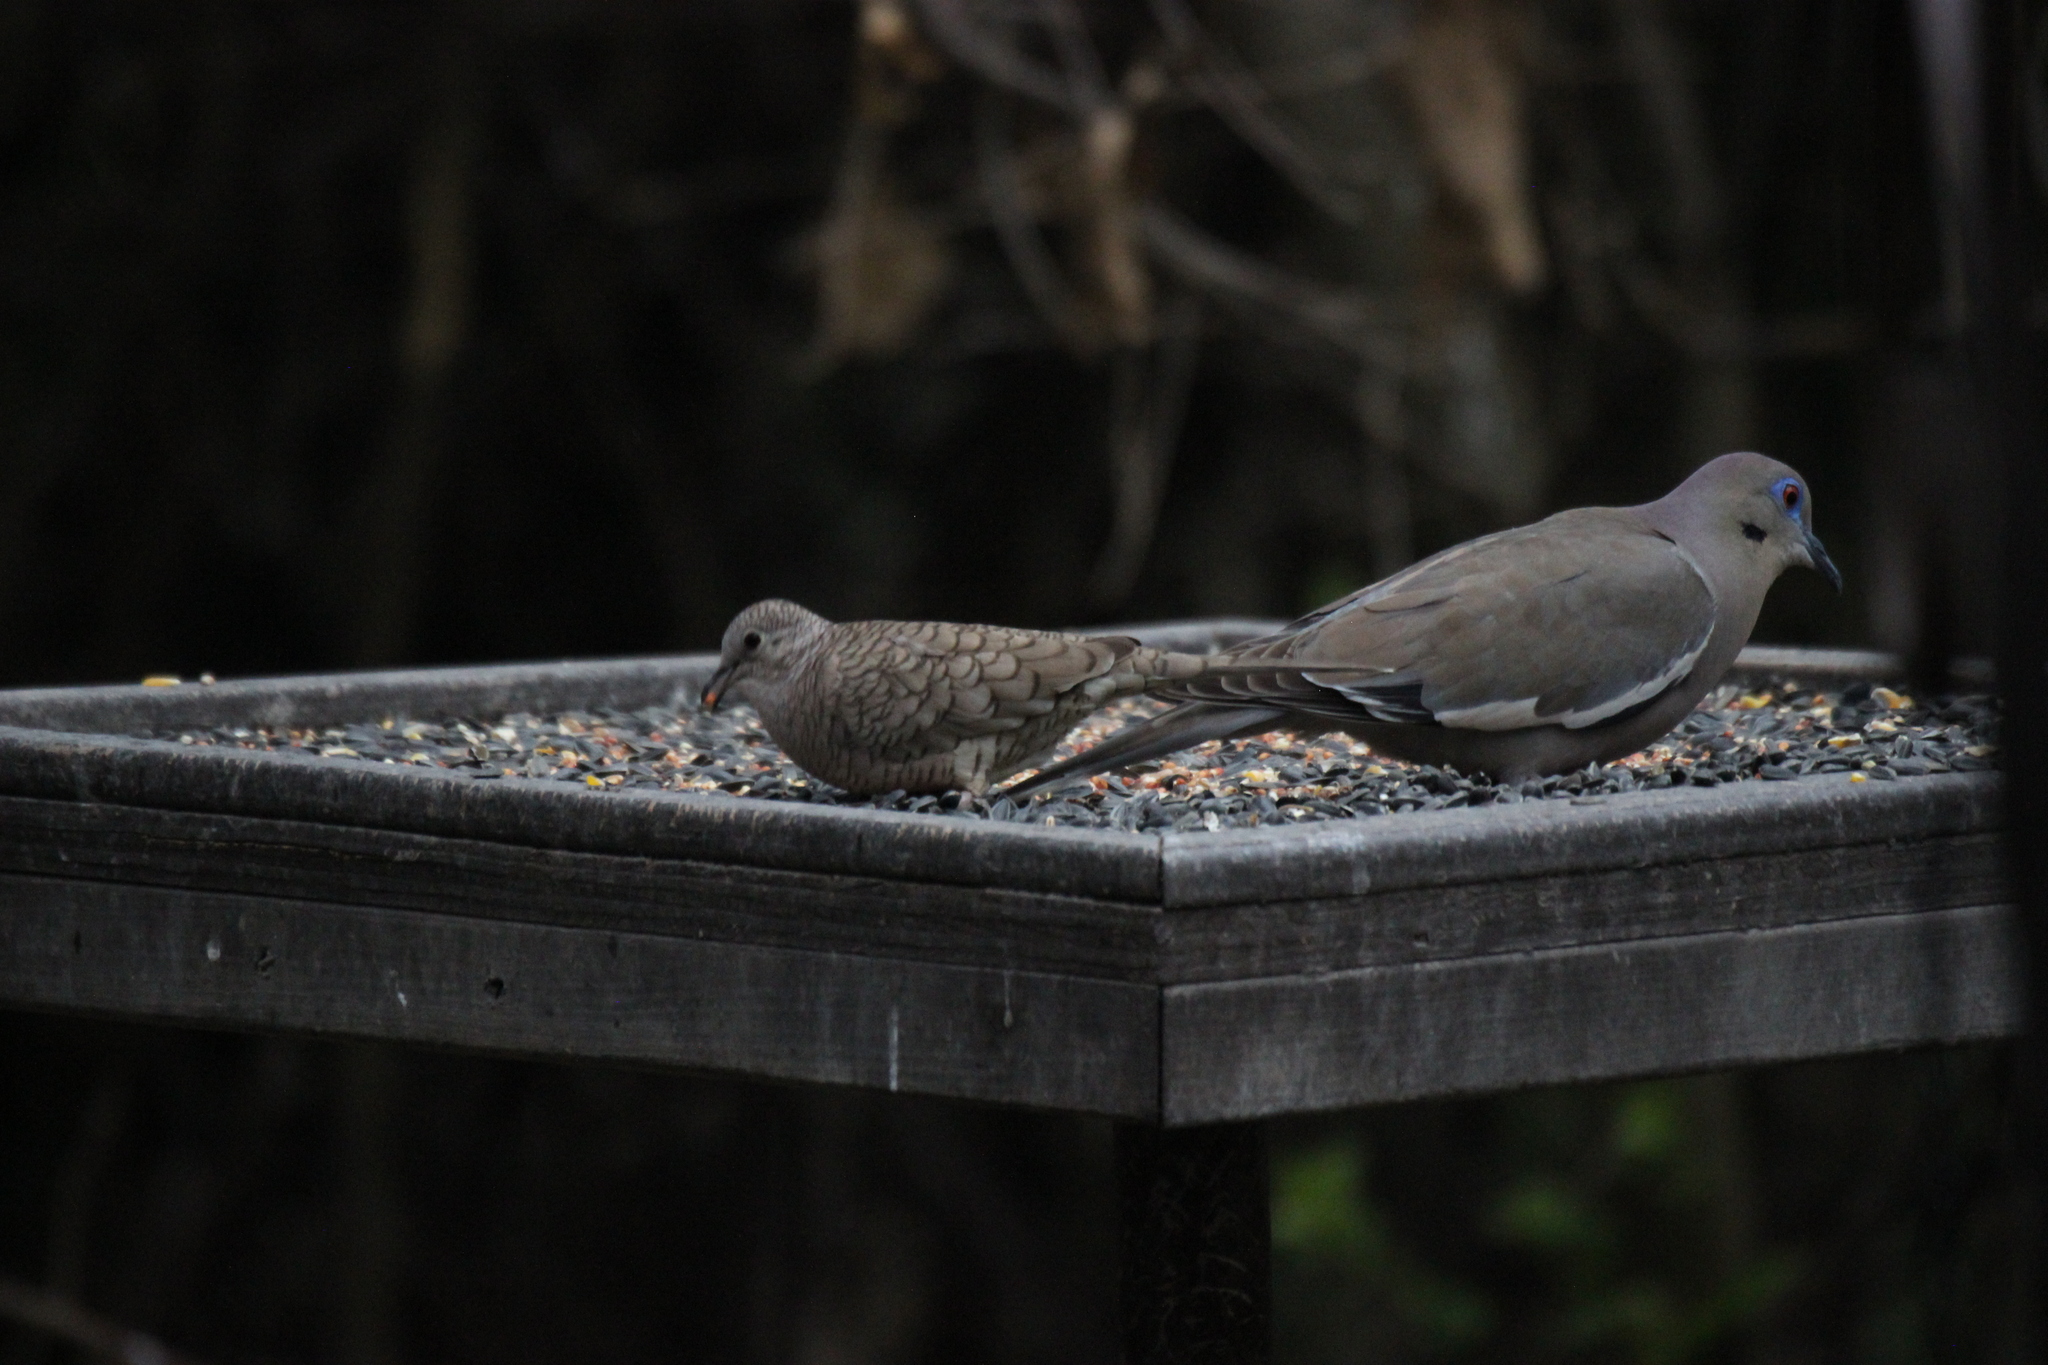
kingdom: Animalia
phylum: Chordata
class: Aves
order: Columbiformes
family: Columbidae
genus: Zenaida
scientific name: Zenaida asiatica
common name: White-winged dove
